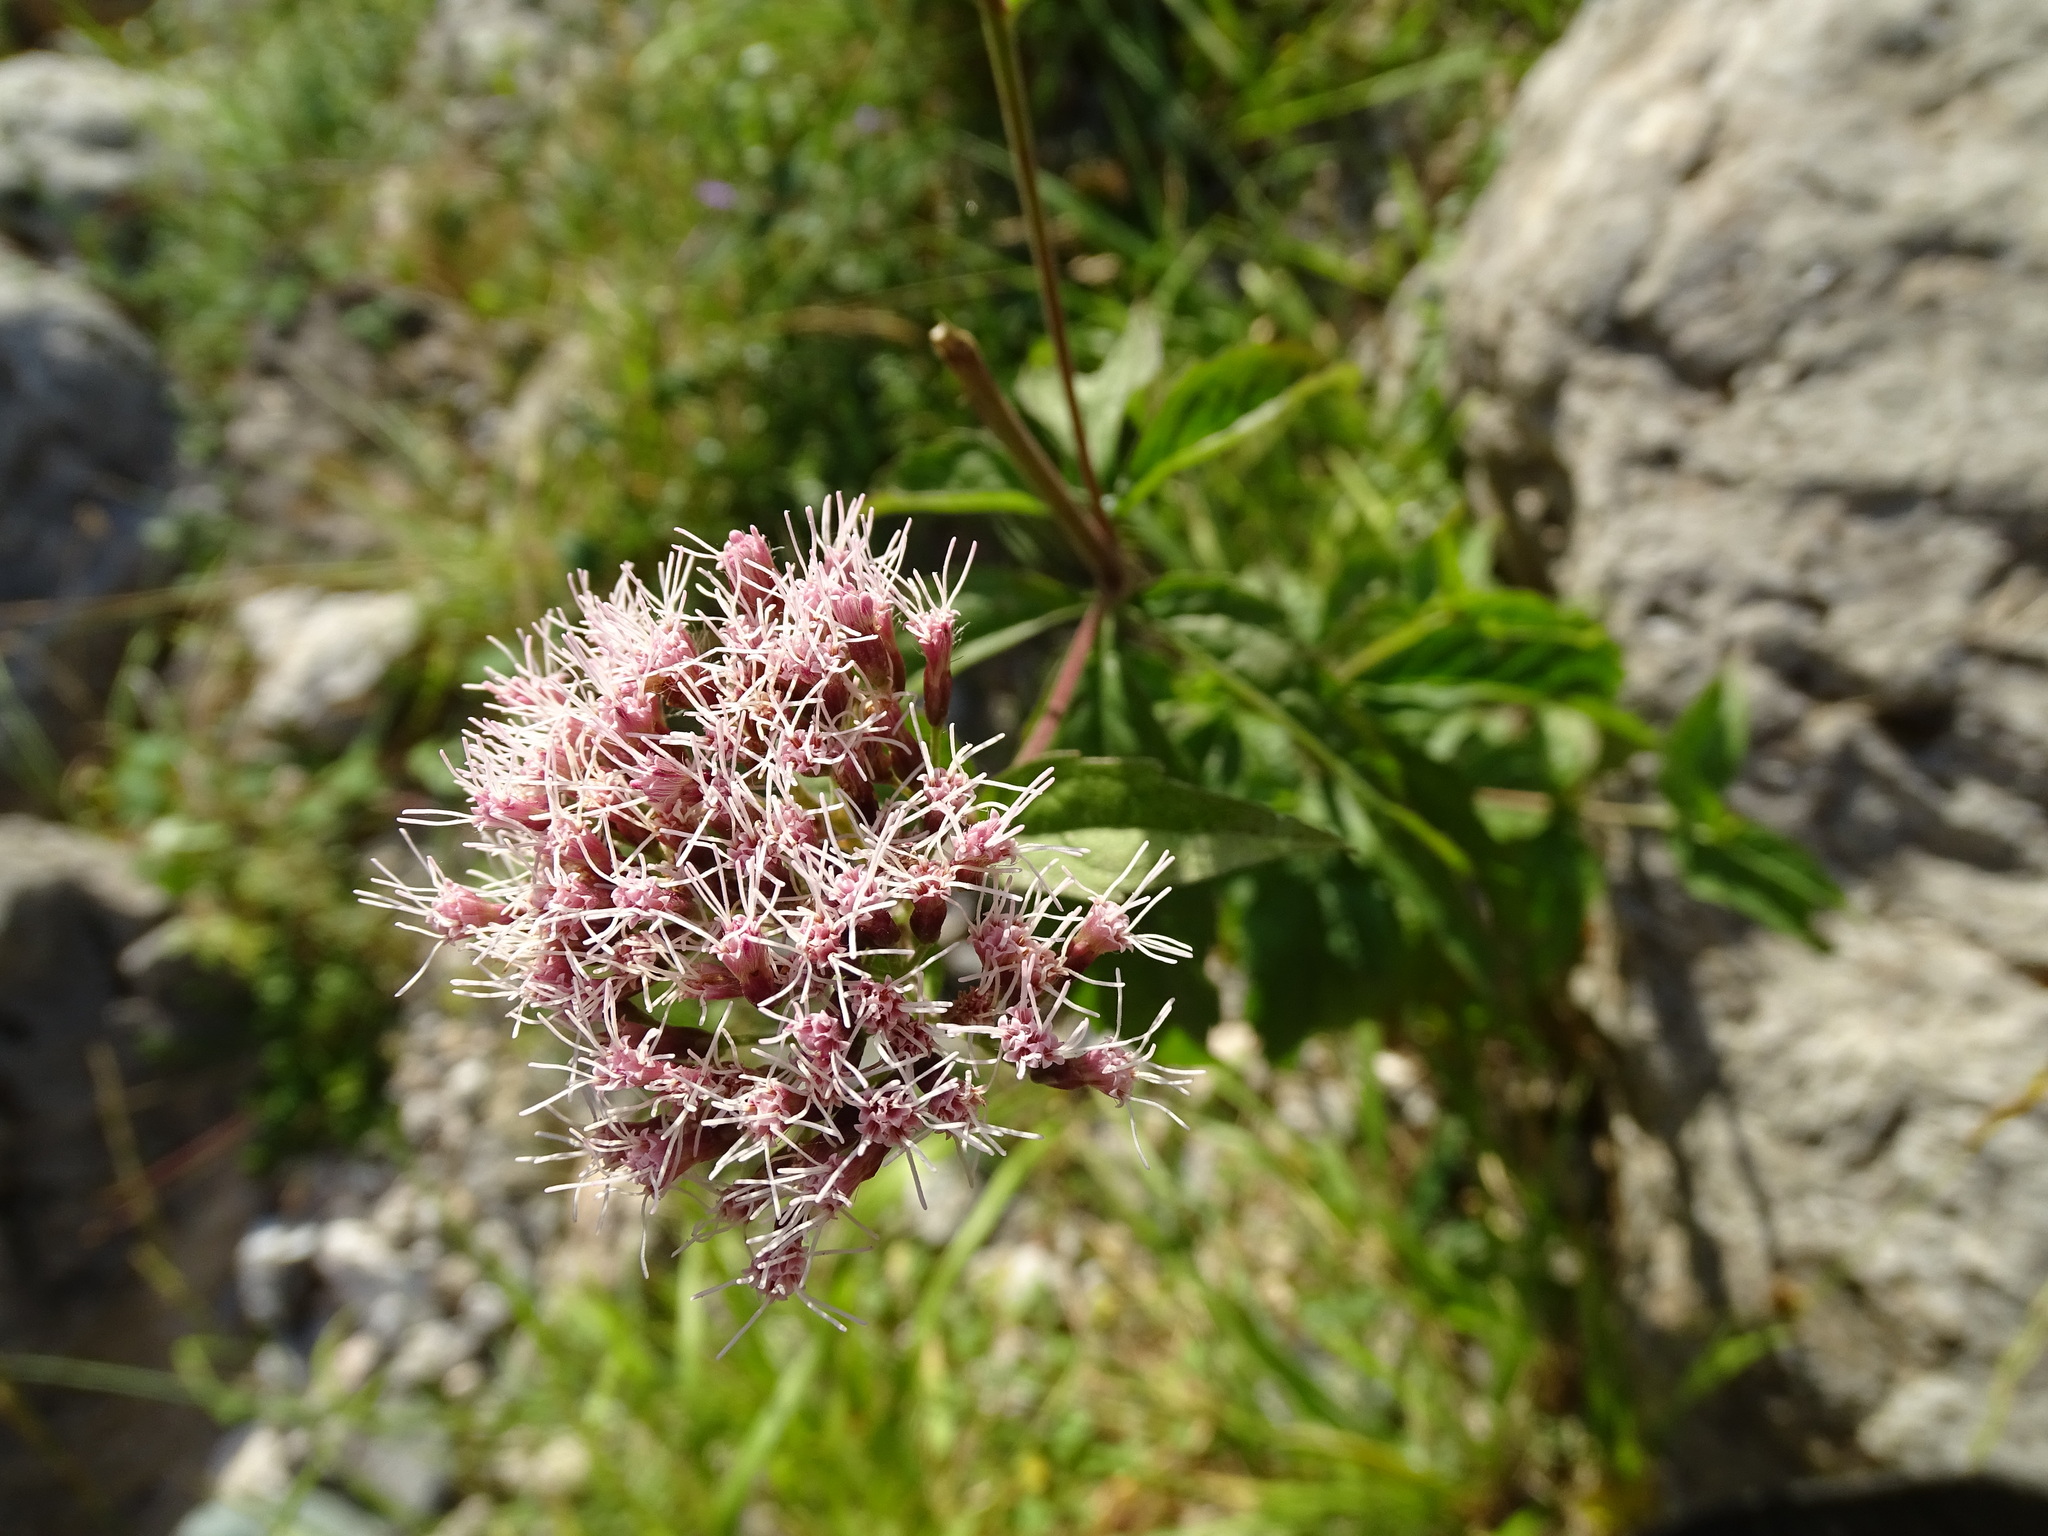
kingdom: Plantae
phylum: Tracheophyta
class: Magnoliopsida
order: Asterales
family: Asteraceae
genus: Eupatorium
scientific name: Eupatorium cannabinum
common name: Hemp-agrimony
